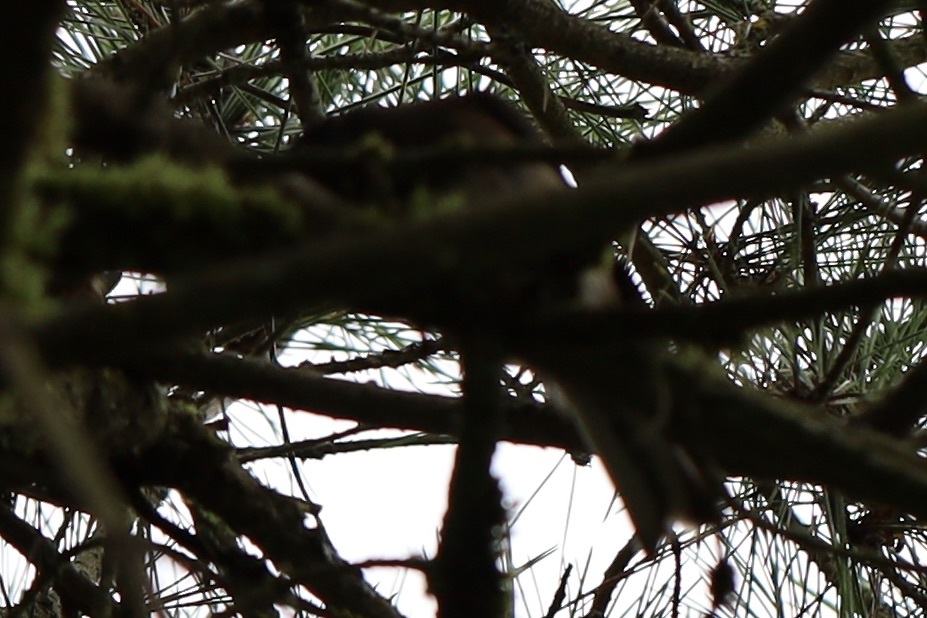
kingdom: Animalia
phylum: Chordata
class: Aves
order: Passeriformes
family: Passerellidae
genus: Junco
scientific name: Junco hyemalis
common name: Dark-eyed junco
